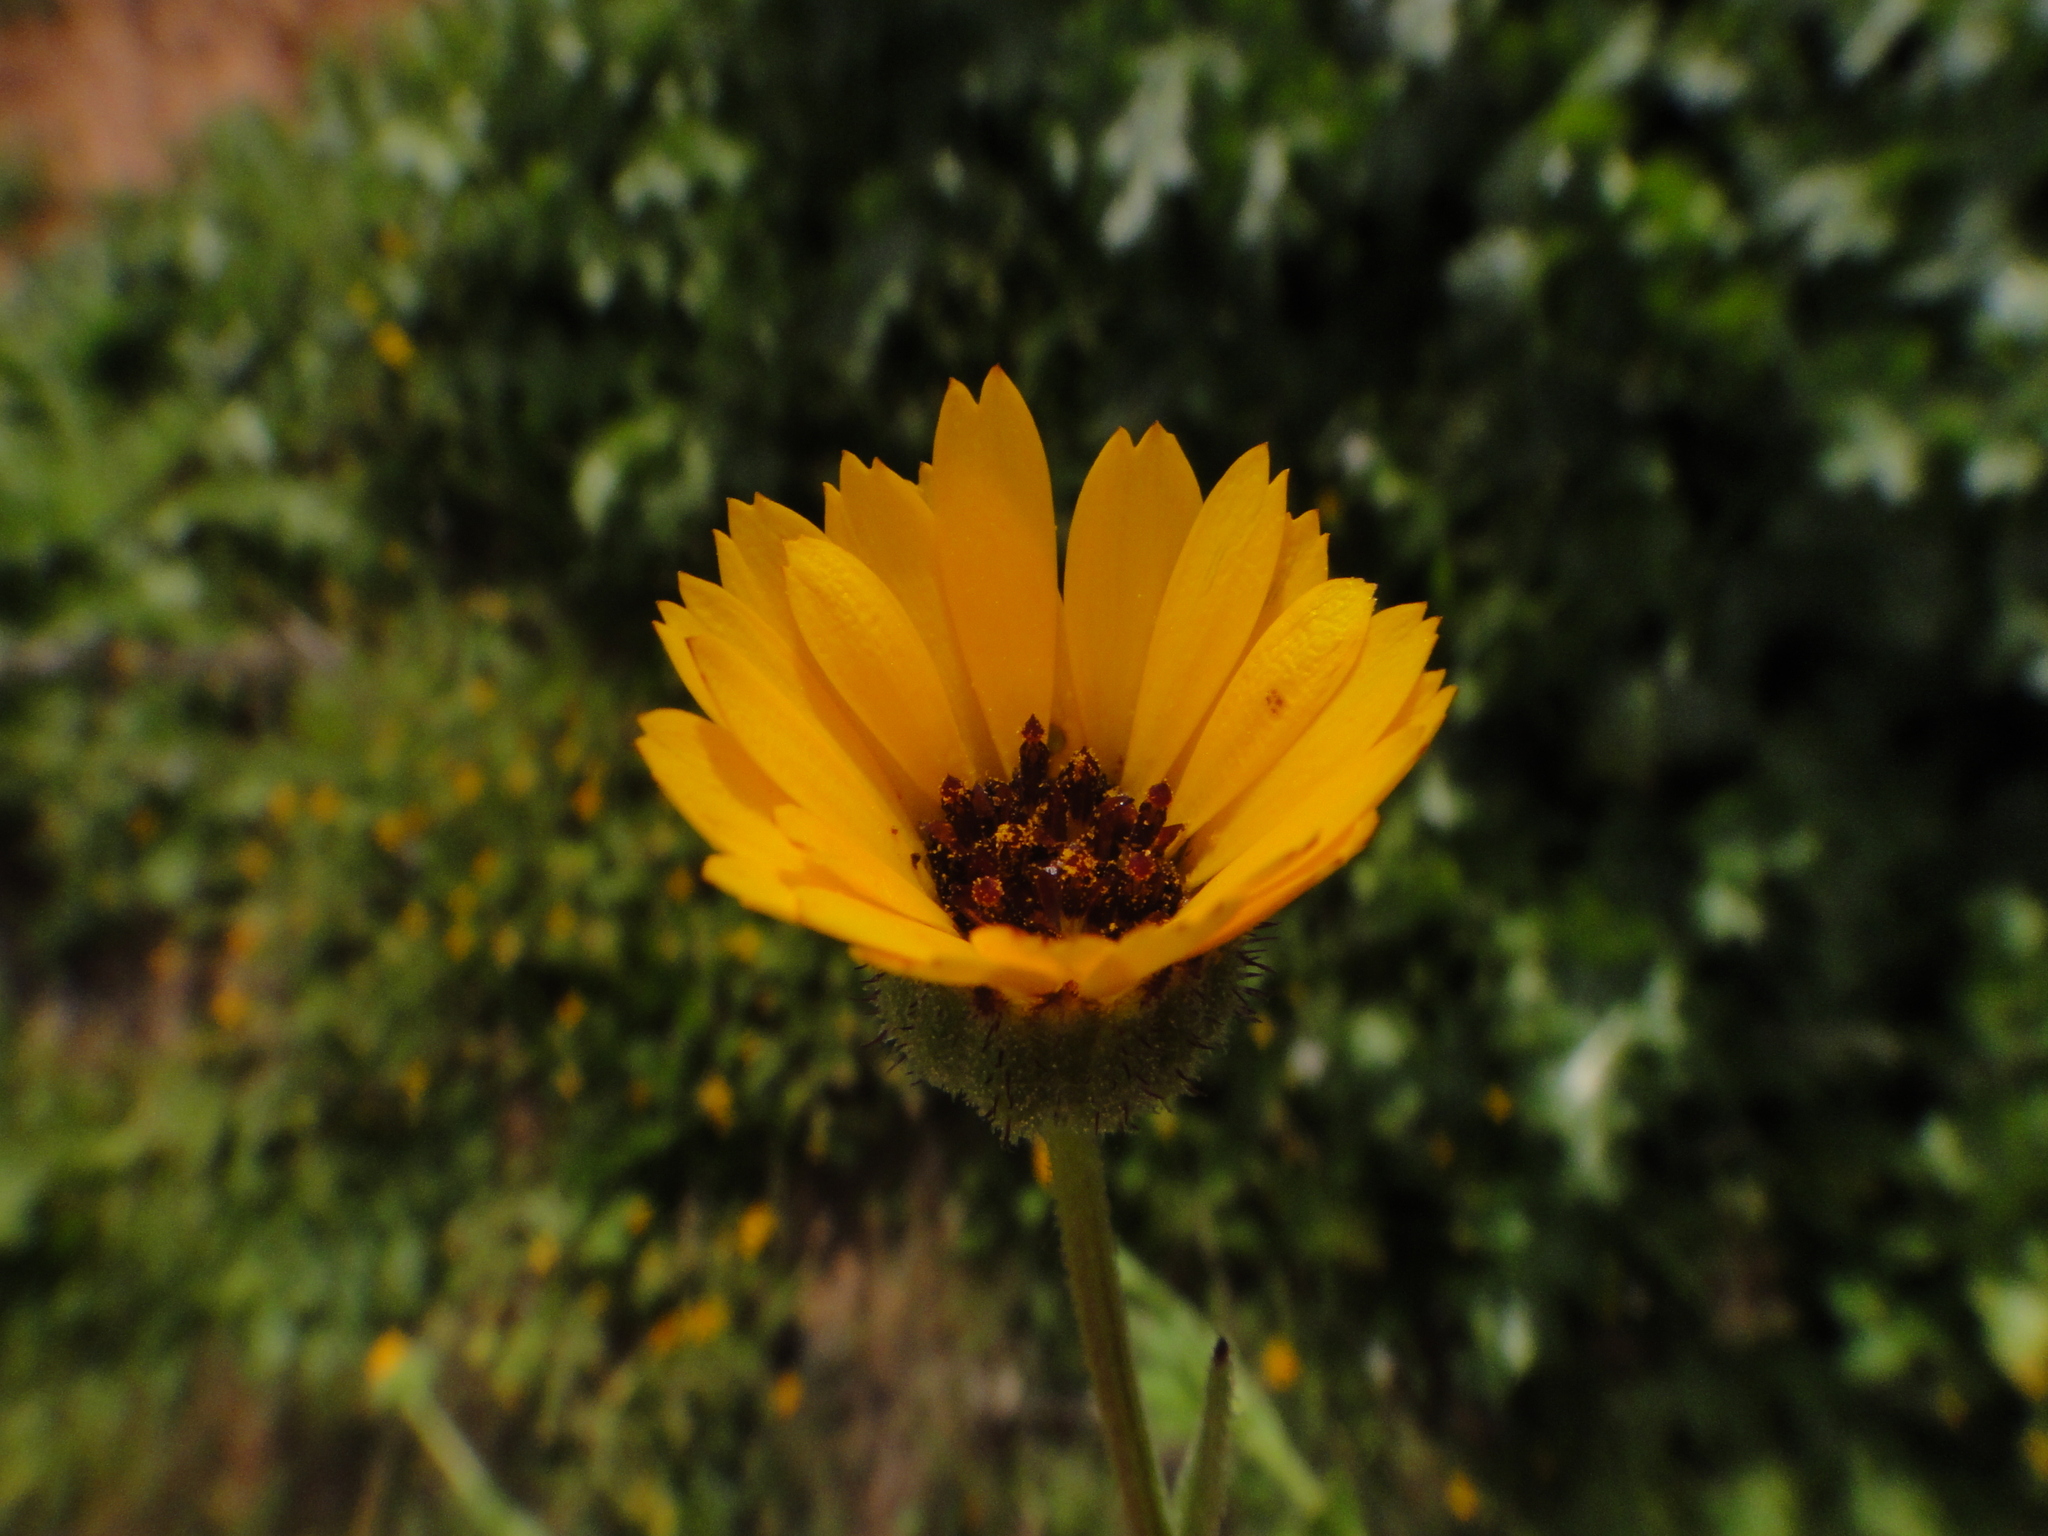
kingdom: Plantae
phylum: Tracheophyta
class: Magnoliopsida
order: Asterales
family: Asteraceae
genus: Calendula
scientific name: Calendula arvensis
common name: Field marigold
